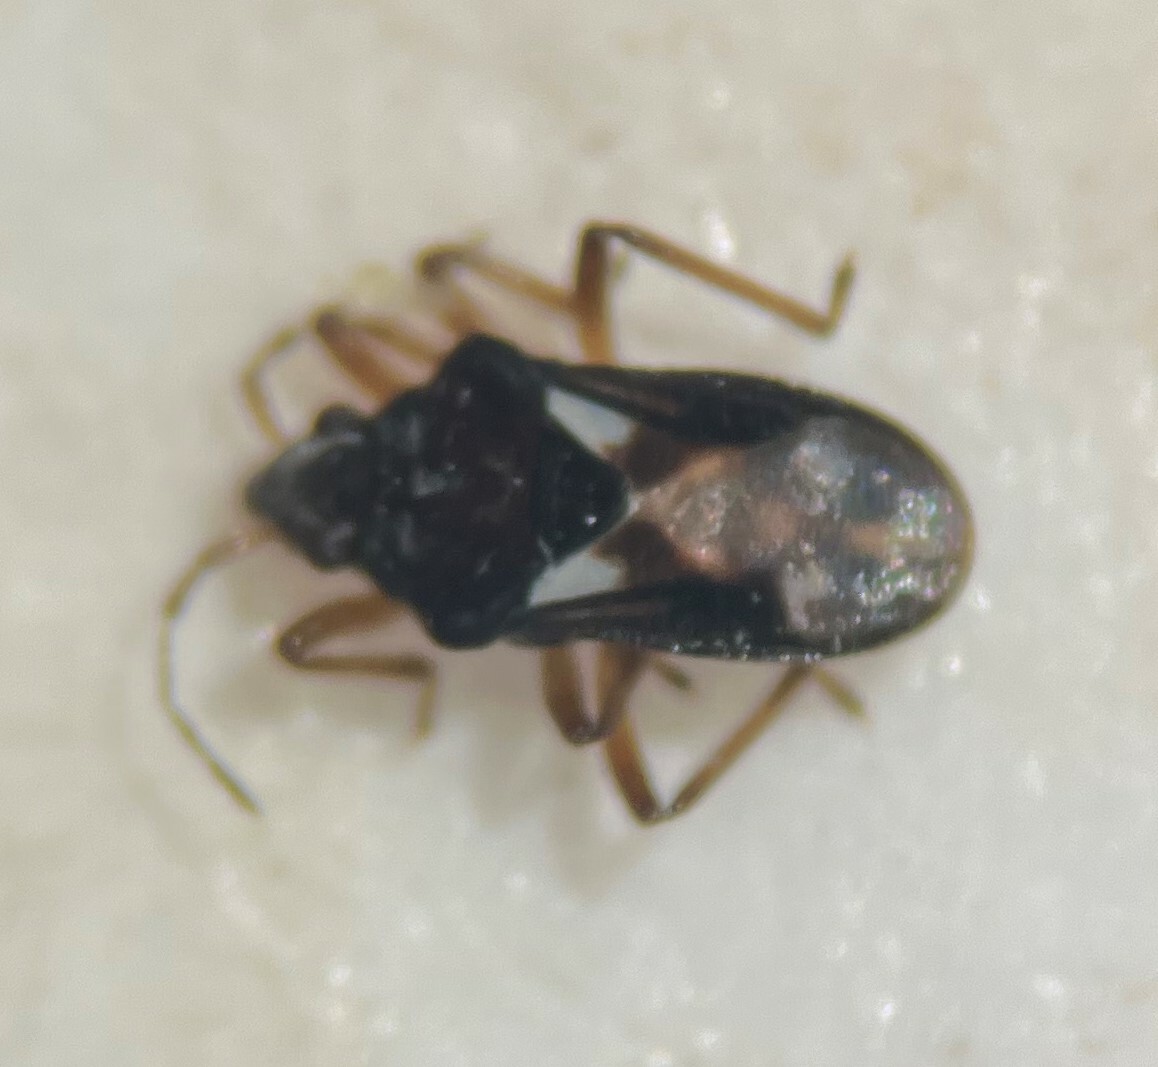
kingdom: Animalia
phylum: Arthropoda
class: Insecta
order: Hemiptera
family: Hebridae
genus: Hebrus
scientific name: Hebrus burmeisteri
